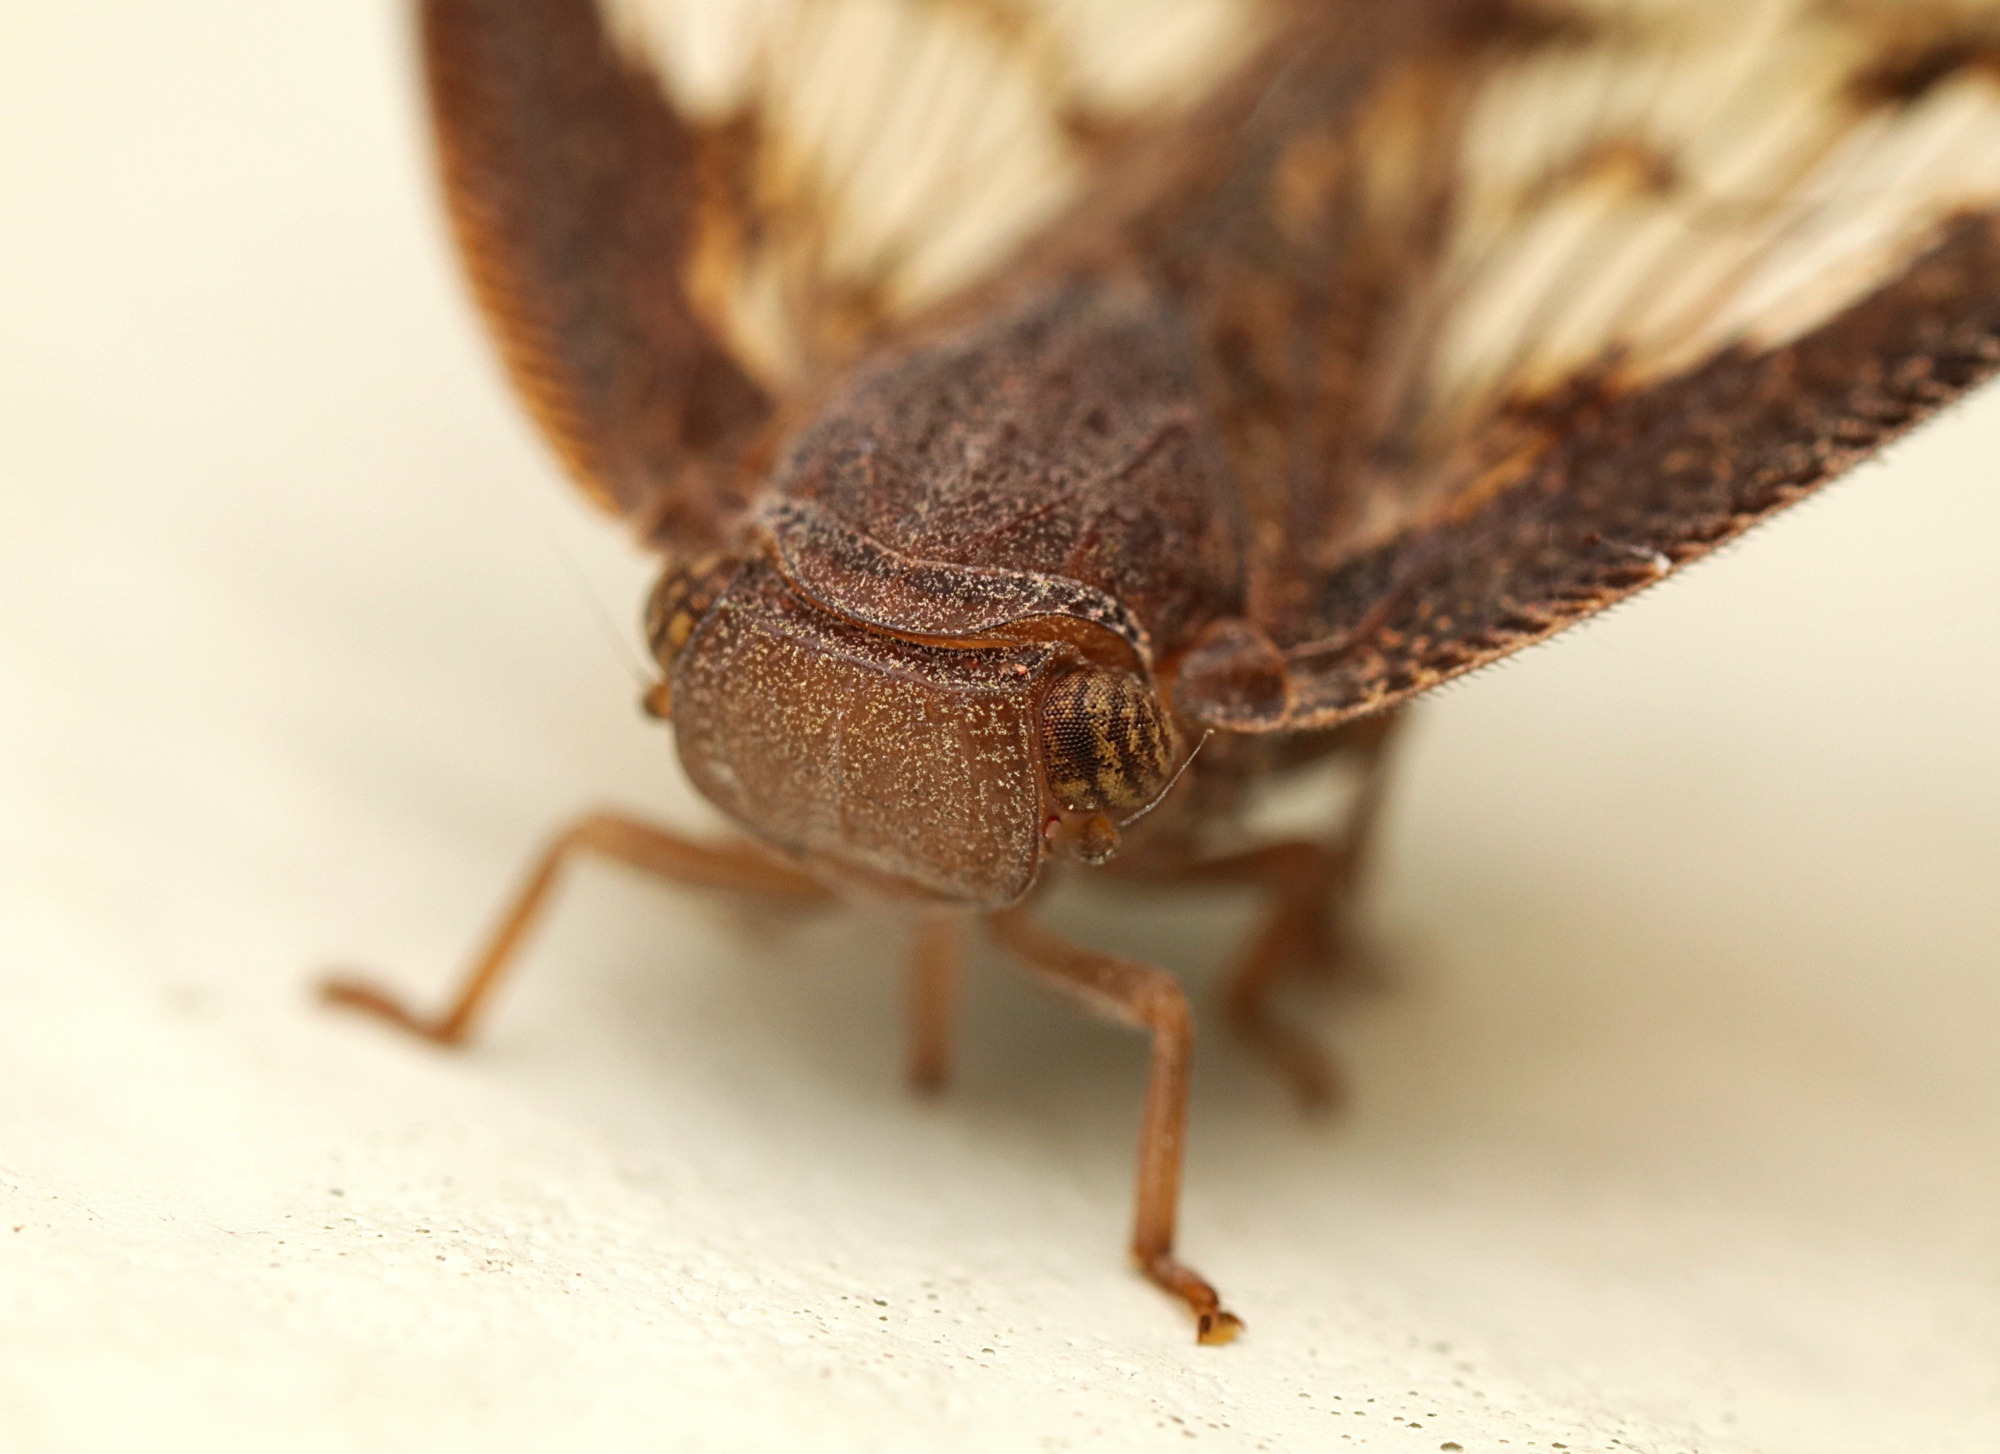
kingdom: Animalia
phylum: Arthropoda
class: Insecta
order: Hemiptera
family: Ricaniidae
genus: Scolypopa
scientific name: Scolypopa australis
